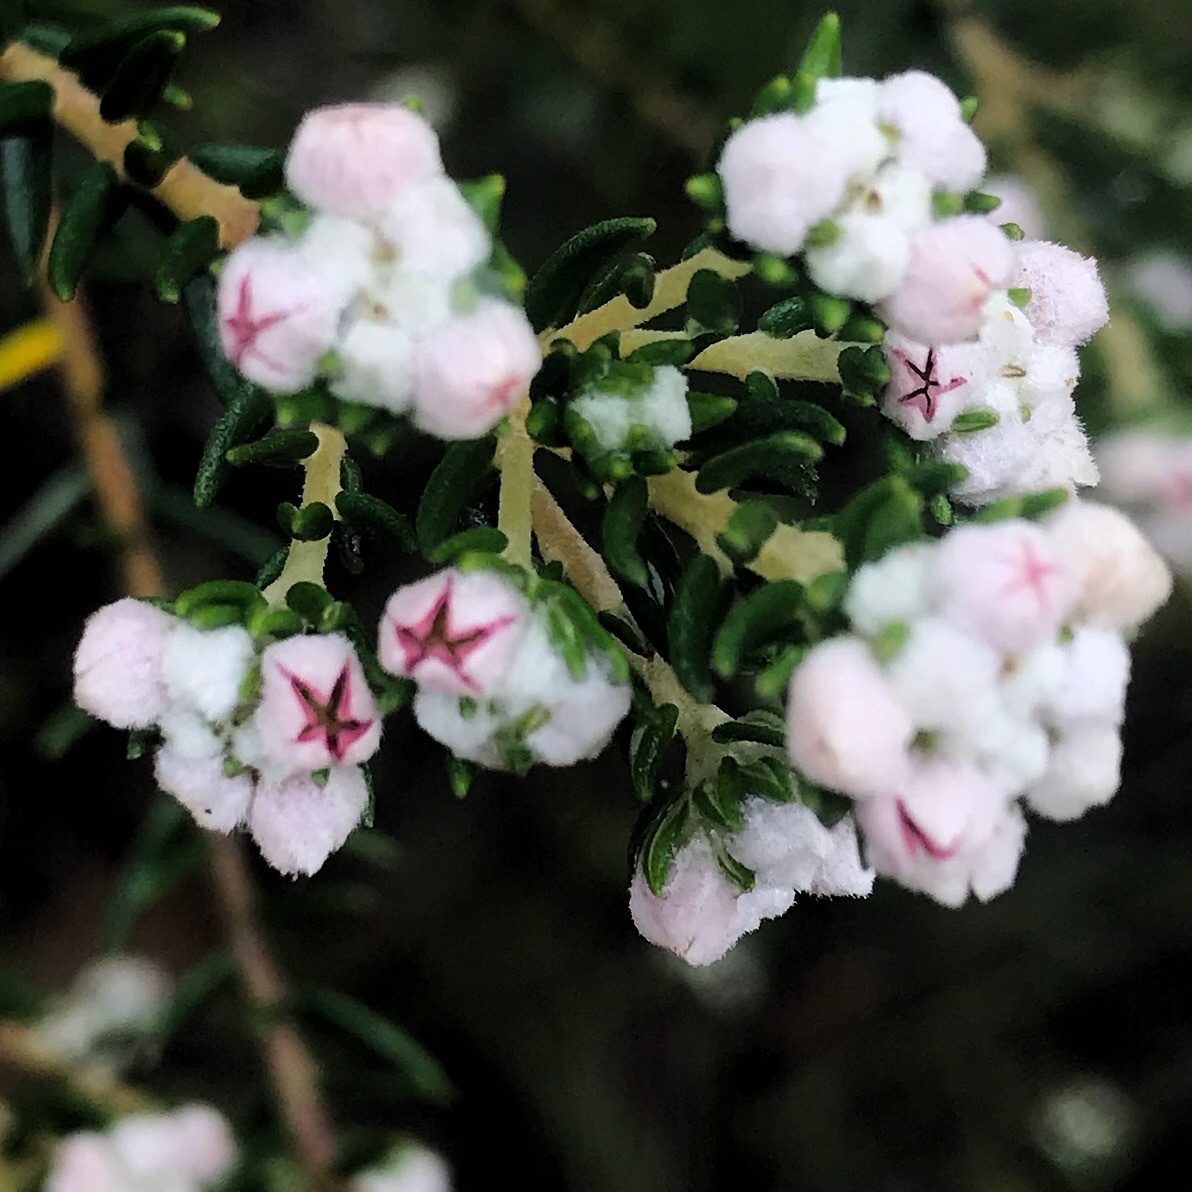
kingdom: Plantae
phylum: Tracheophyta
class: Magnoliopsida
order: Rosales
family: Rhamnaceae
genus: Phylica
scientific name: Phylica purpurea
